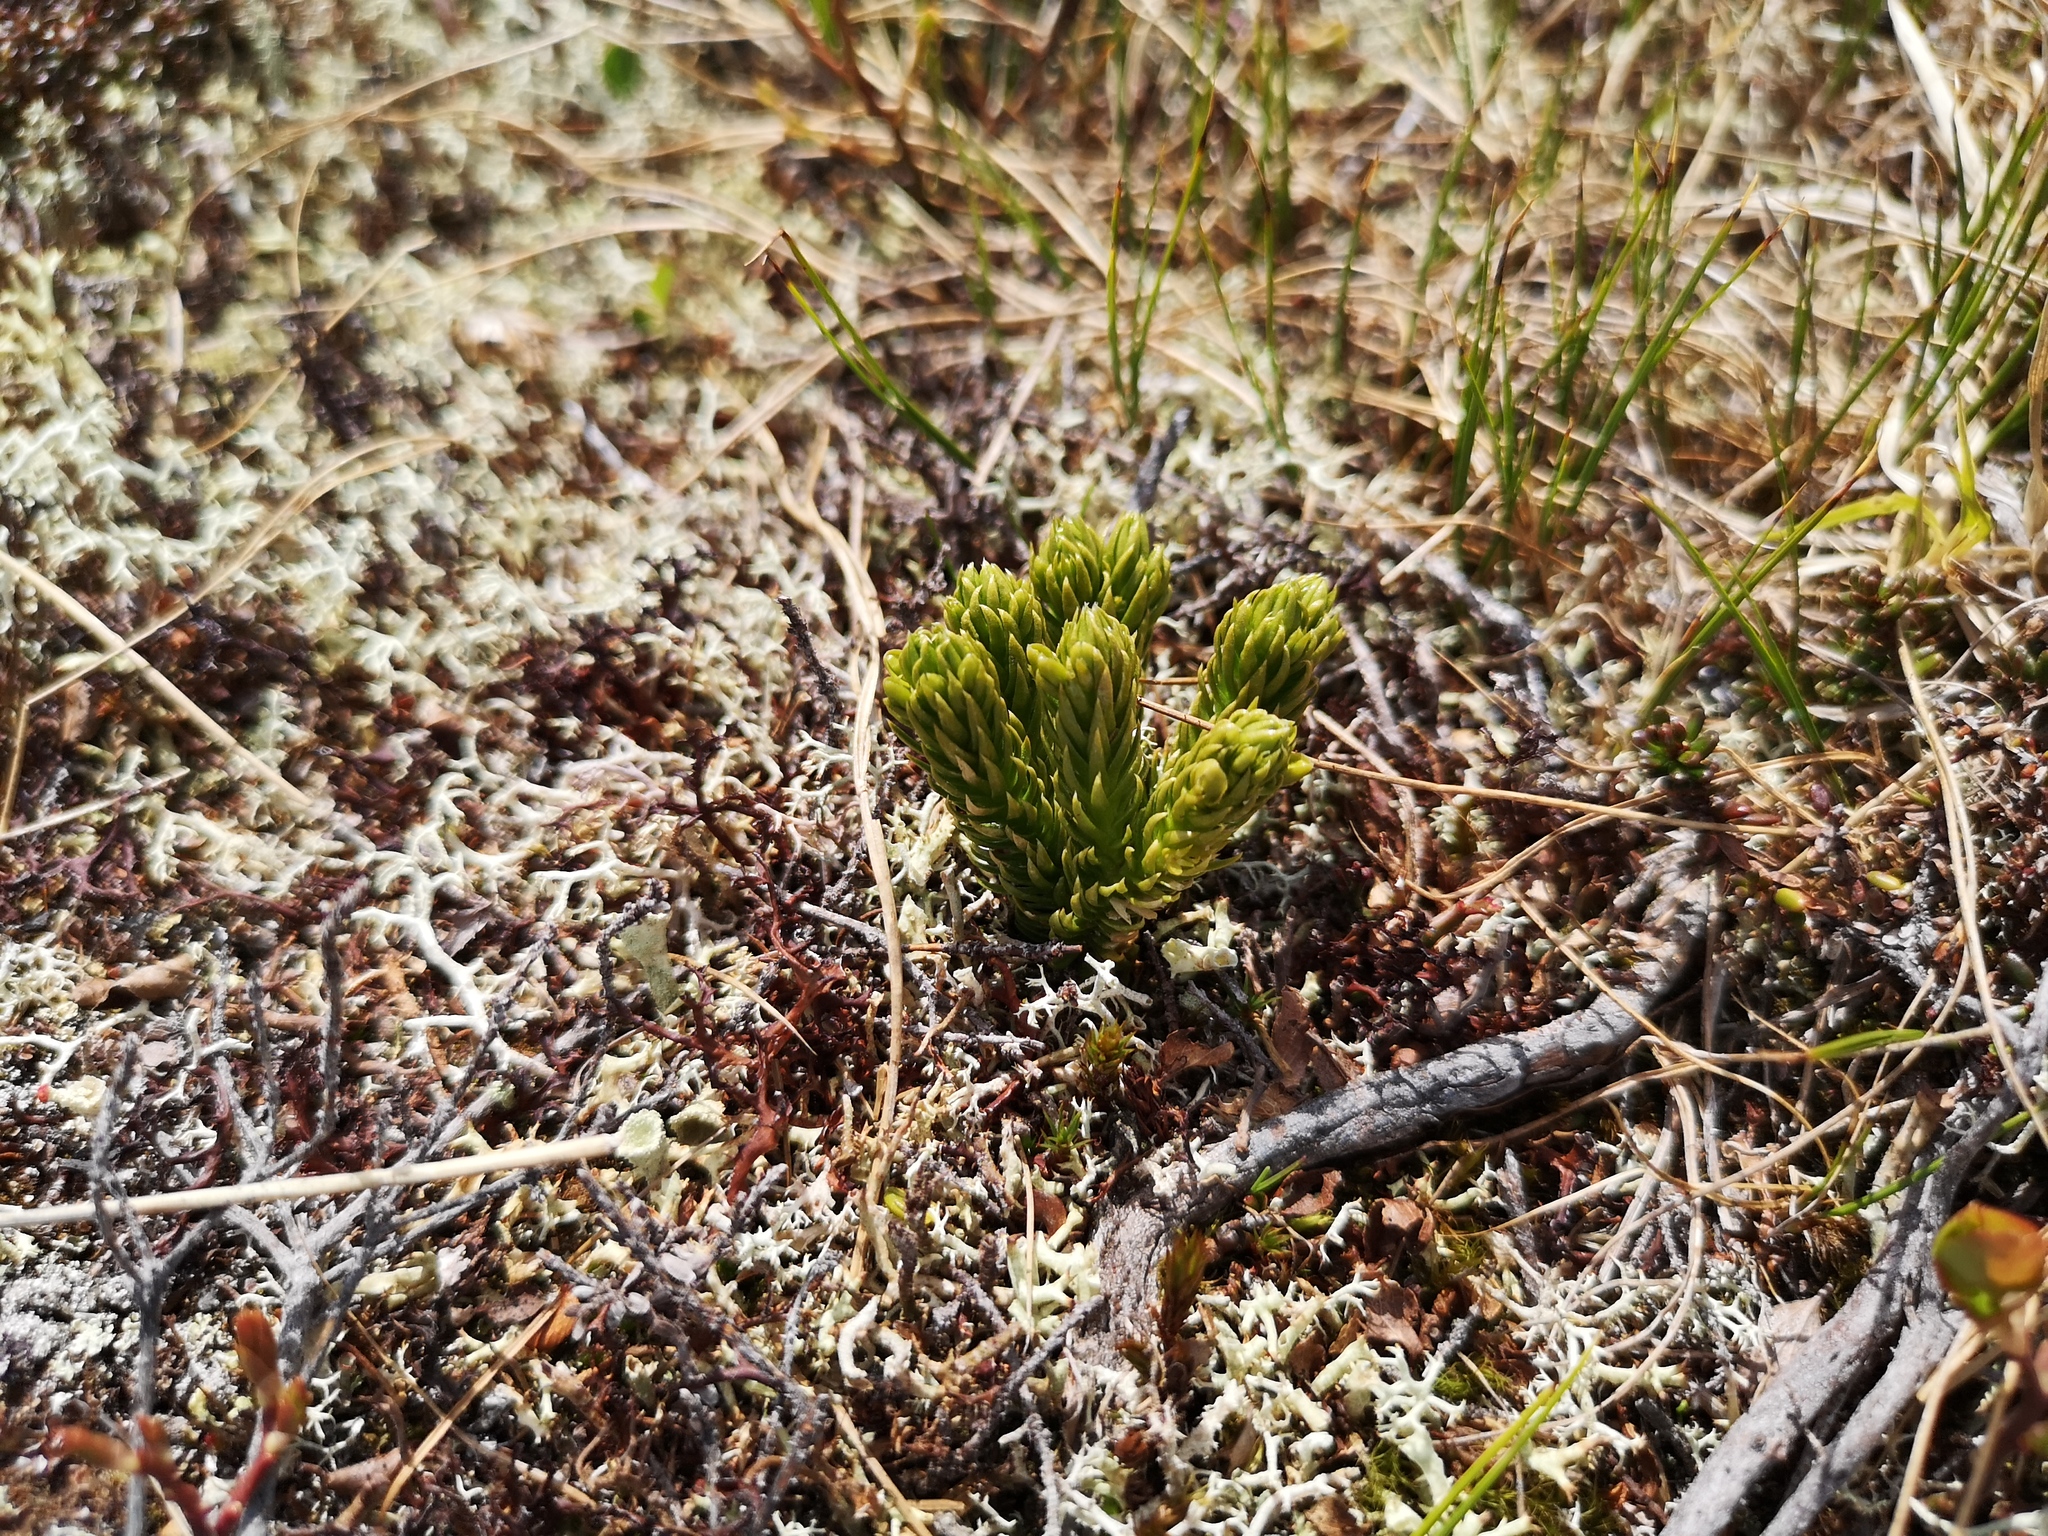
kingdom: Plantae
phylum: Tracheophyta
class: Lycopodiopsida
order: Lycopodiales
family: Lycopodiaceae
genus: Huperzia
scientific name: Huperzia selago
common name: Northern firmoss
